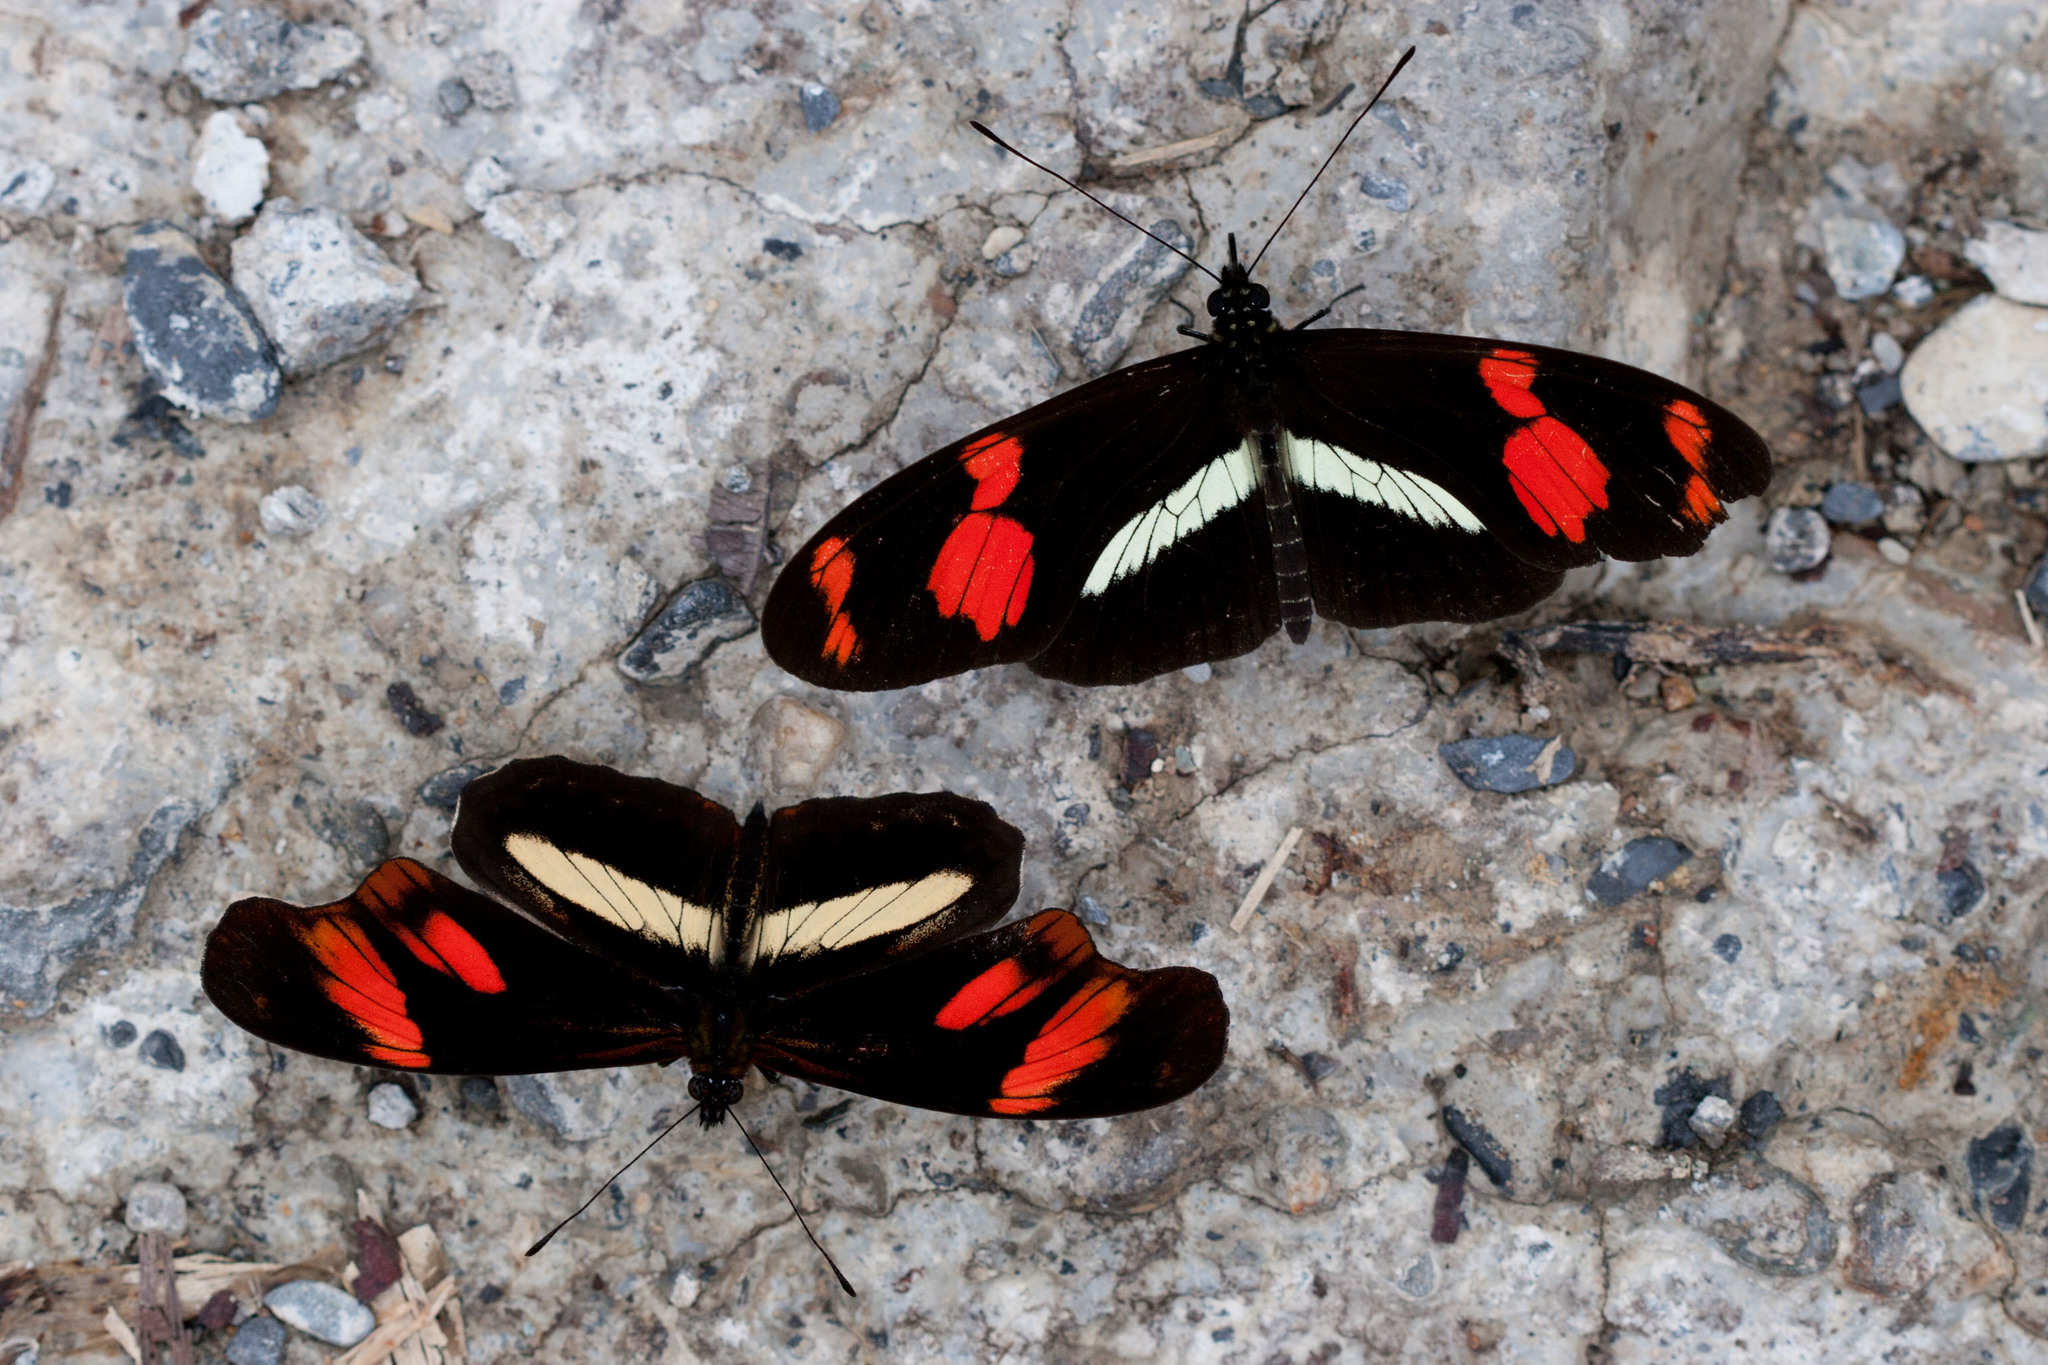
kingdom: Animalia
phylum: Arthropoda
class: Insecta
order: Lepidoptera
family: Nymphalidae
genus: Podotricha
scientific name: Podotricha telesiphe
